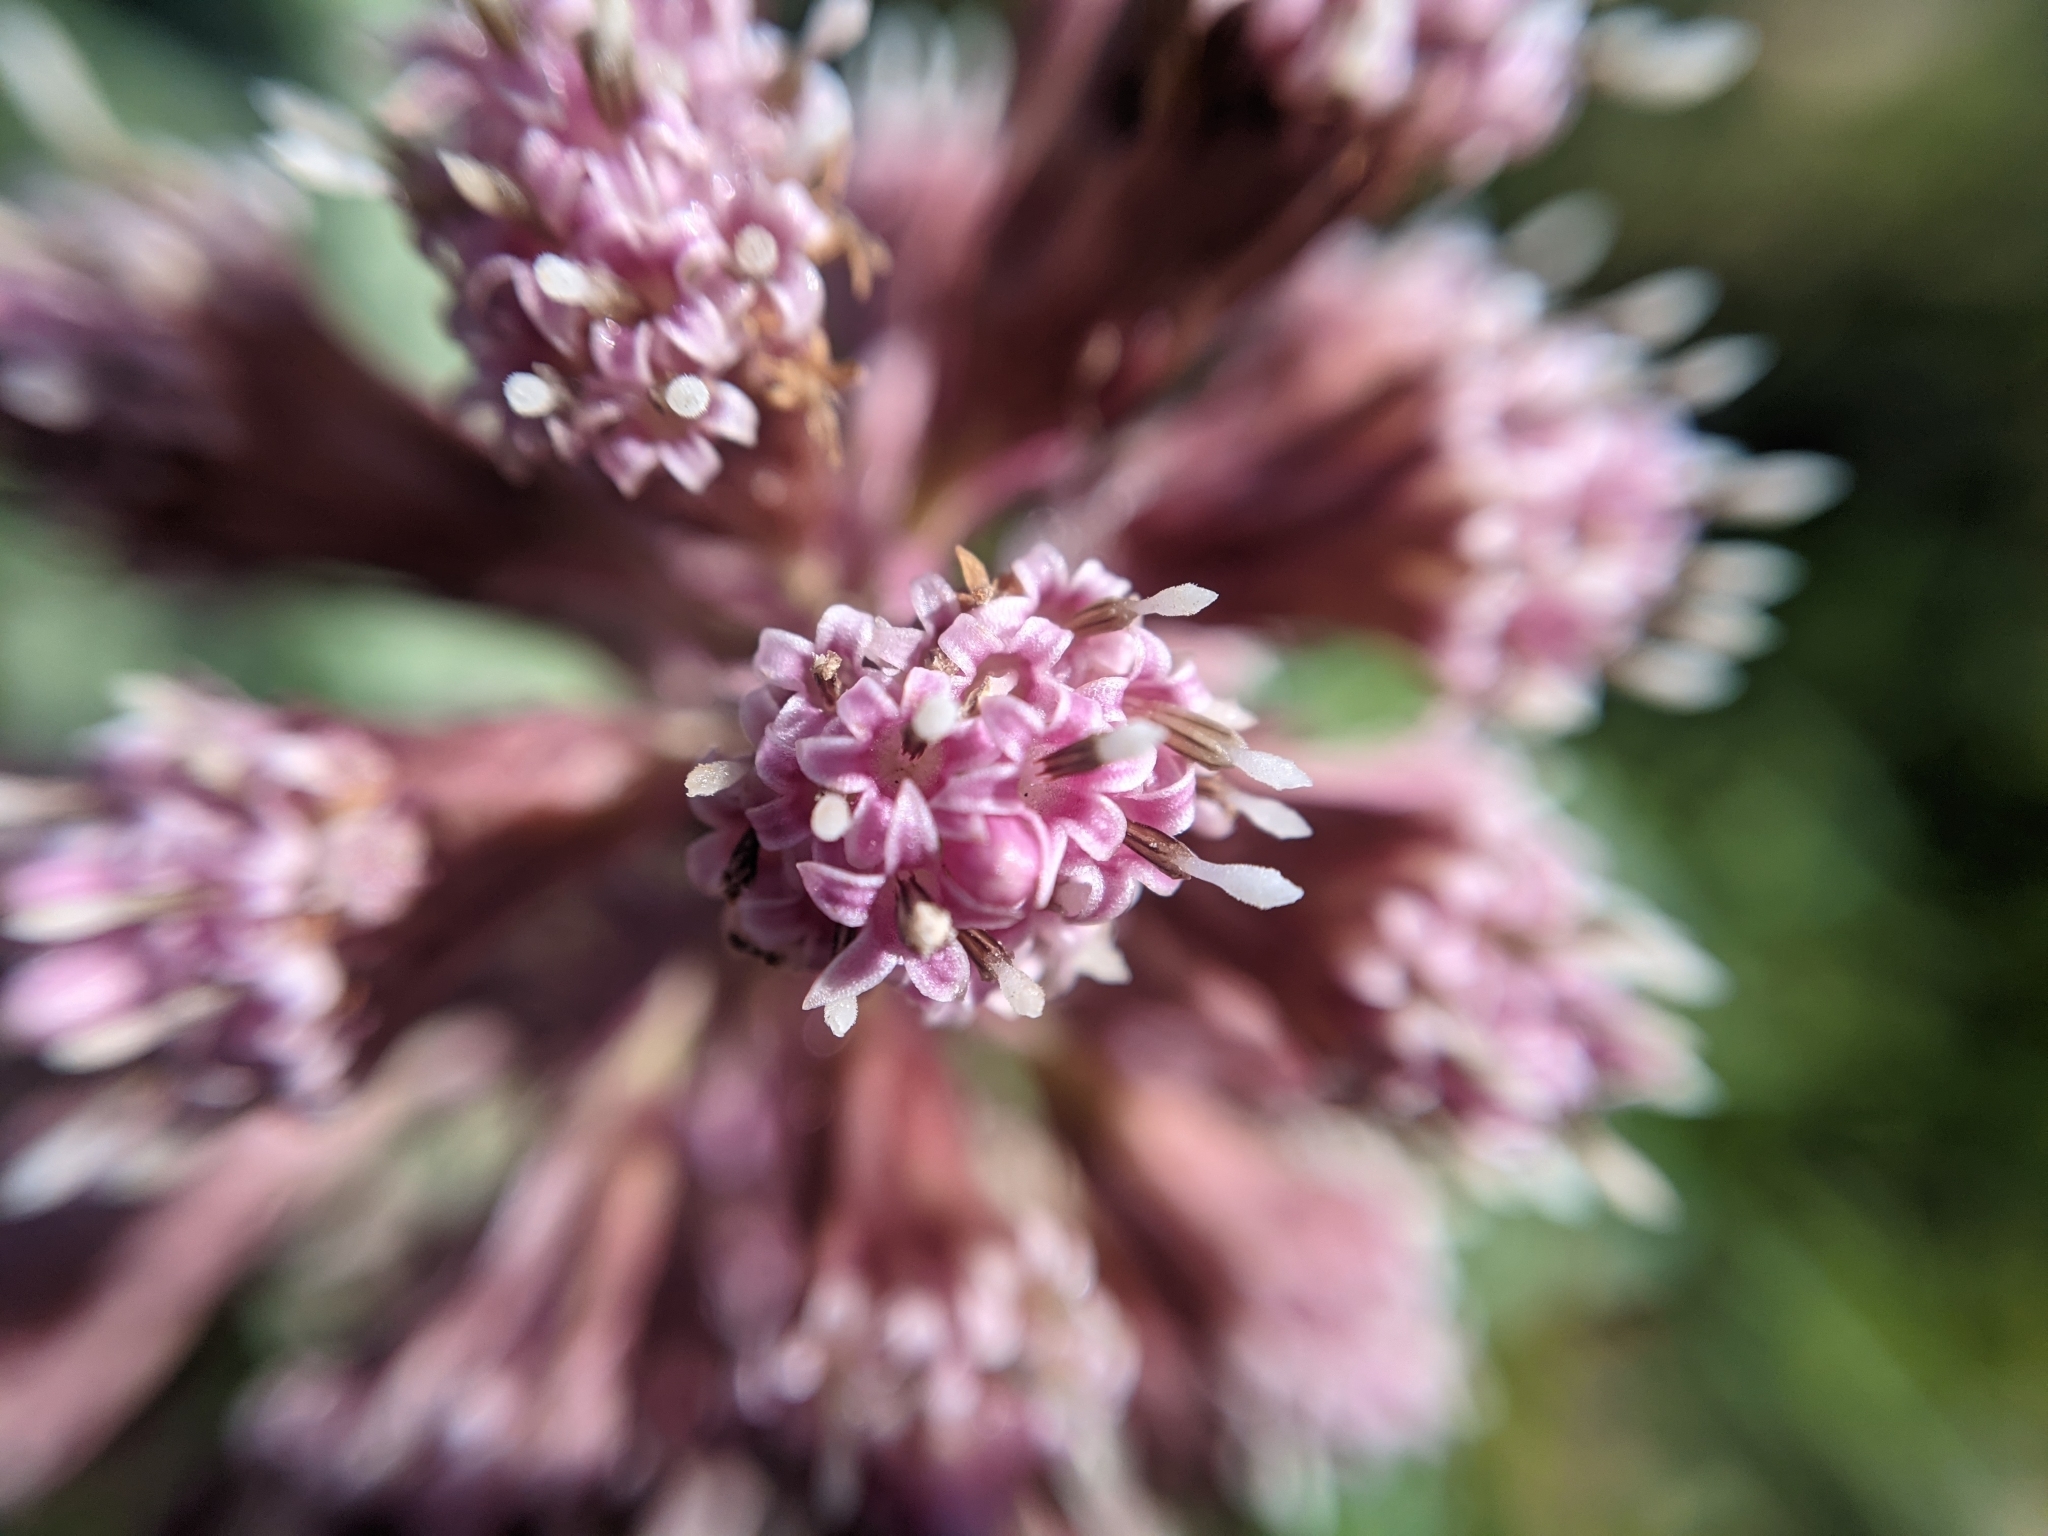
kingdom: Plantae
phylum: Tracheophyta
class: Magnoliopsida
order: Asterales
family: Asteraceae
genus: Petasites
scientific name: Petasites hybridus
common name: Butterbur
